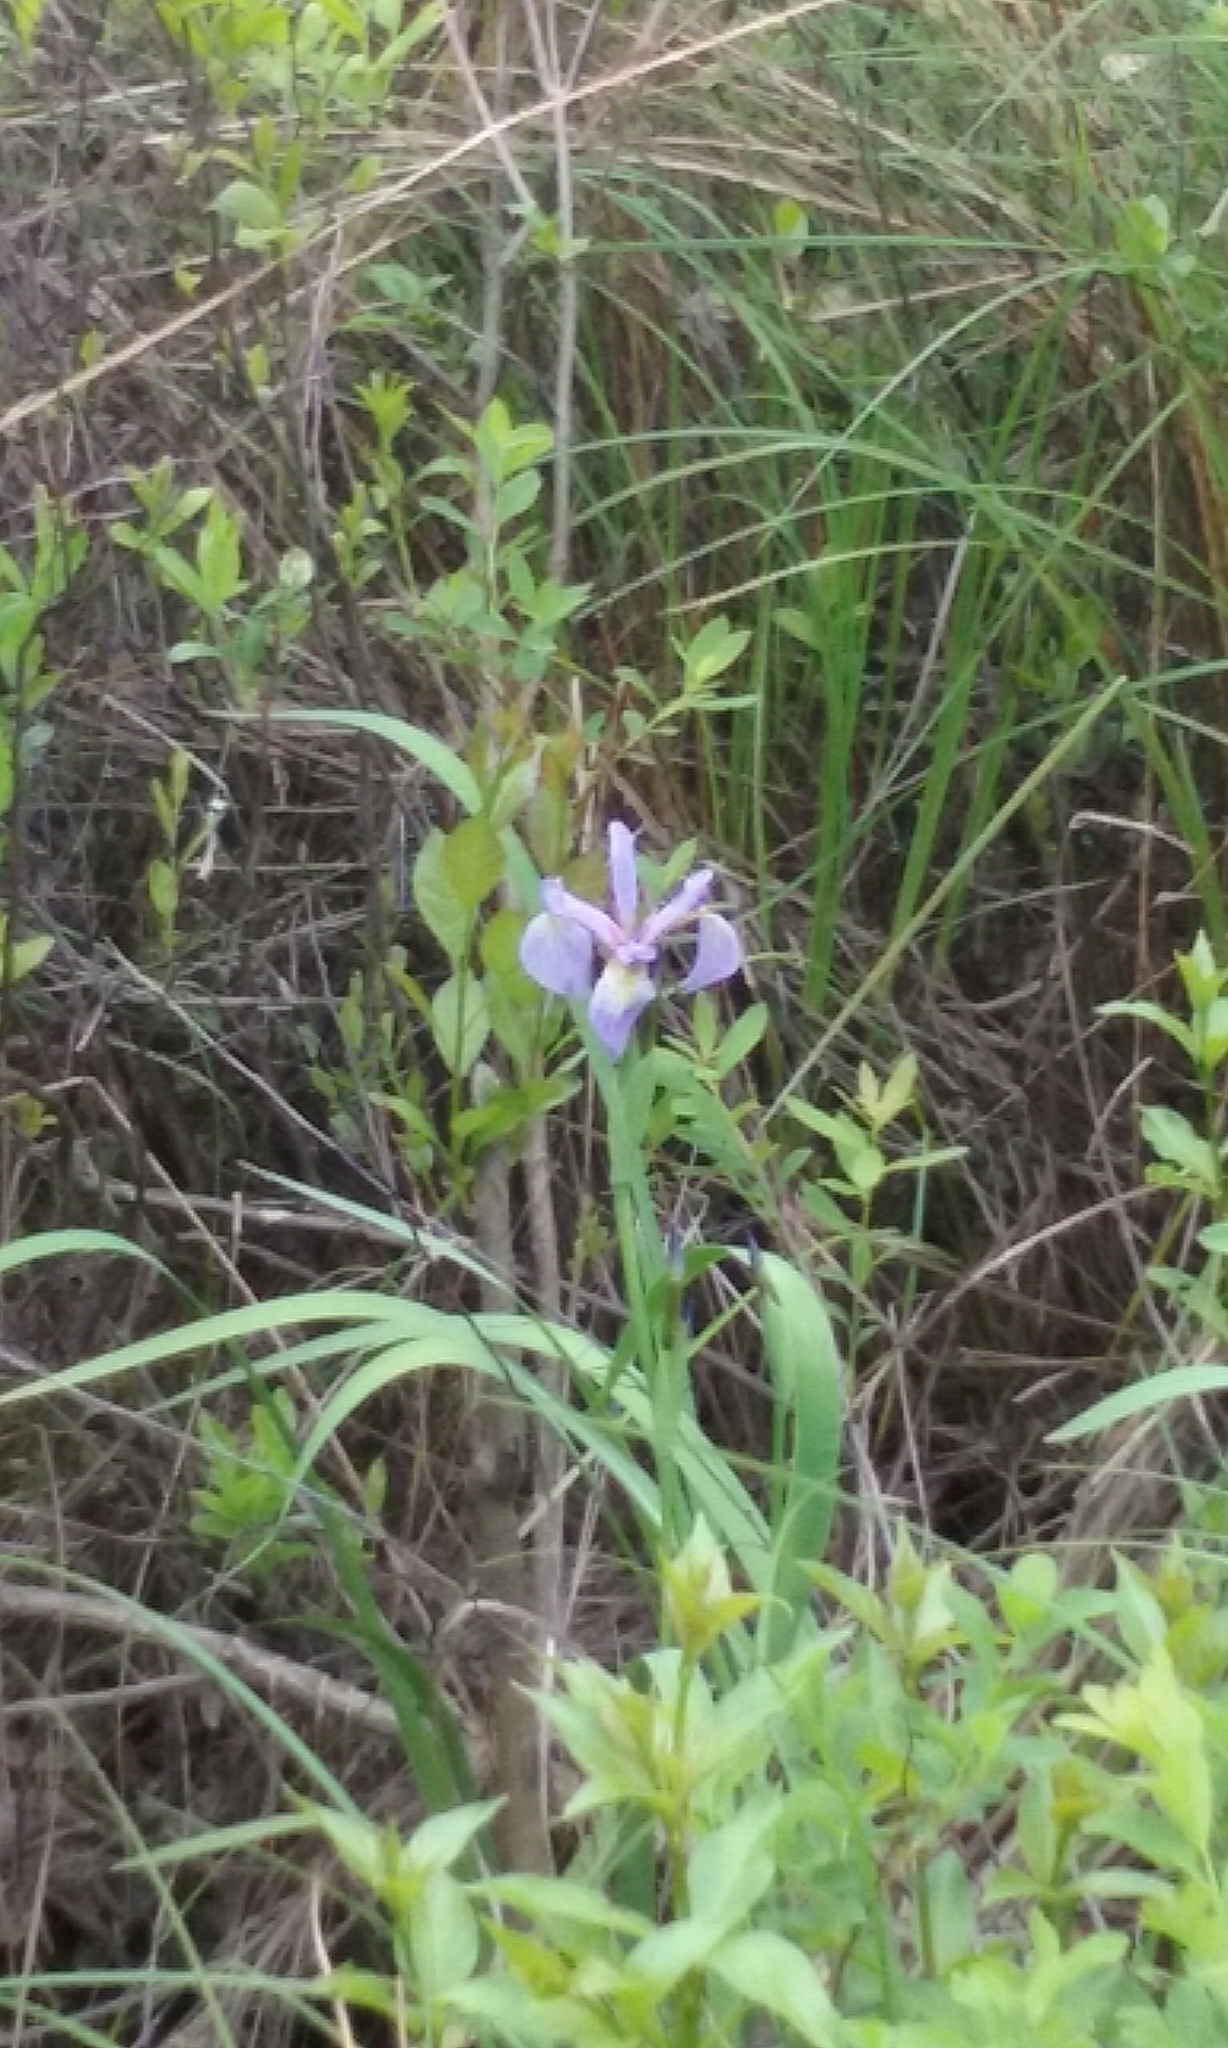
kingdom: Plantae
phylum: Tracheophyta
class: Liliopsida
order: Asparagales
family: Iridaceae
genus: Iris
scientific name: Iris versicolor
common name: Purple iris
